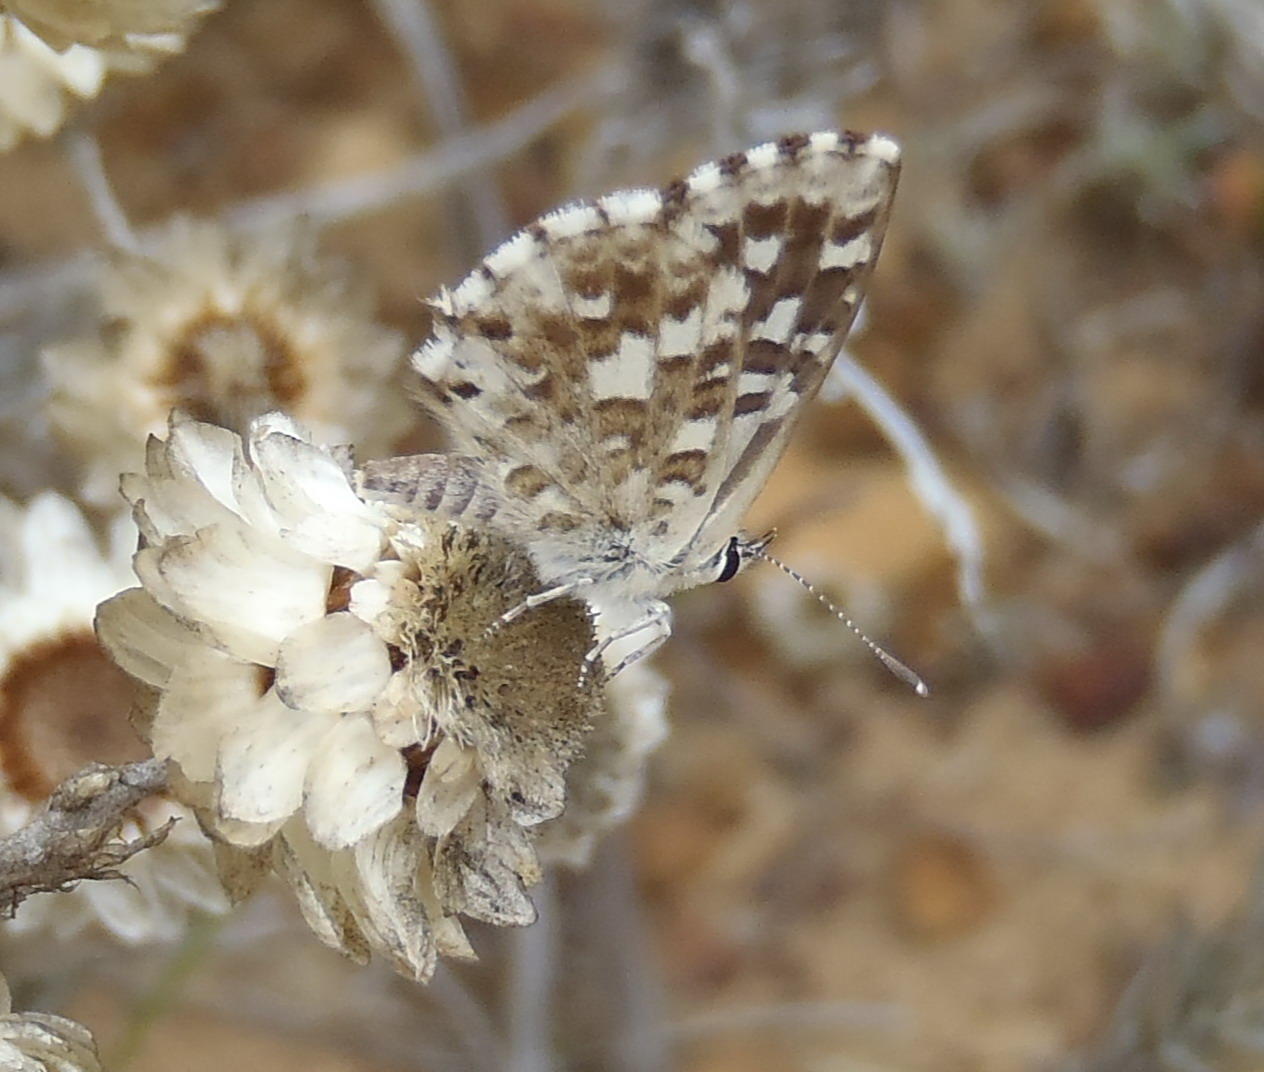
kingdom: Animalia
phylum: Arthropoda
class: Insecta
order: Lepidoptera
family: Lycaenidae
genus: Tarucus
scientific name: Tarucus thespis
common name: Vivid dotted blue
